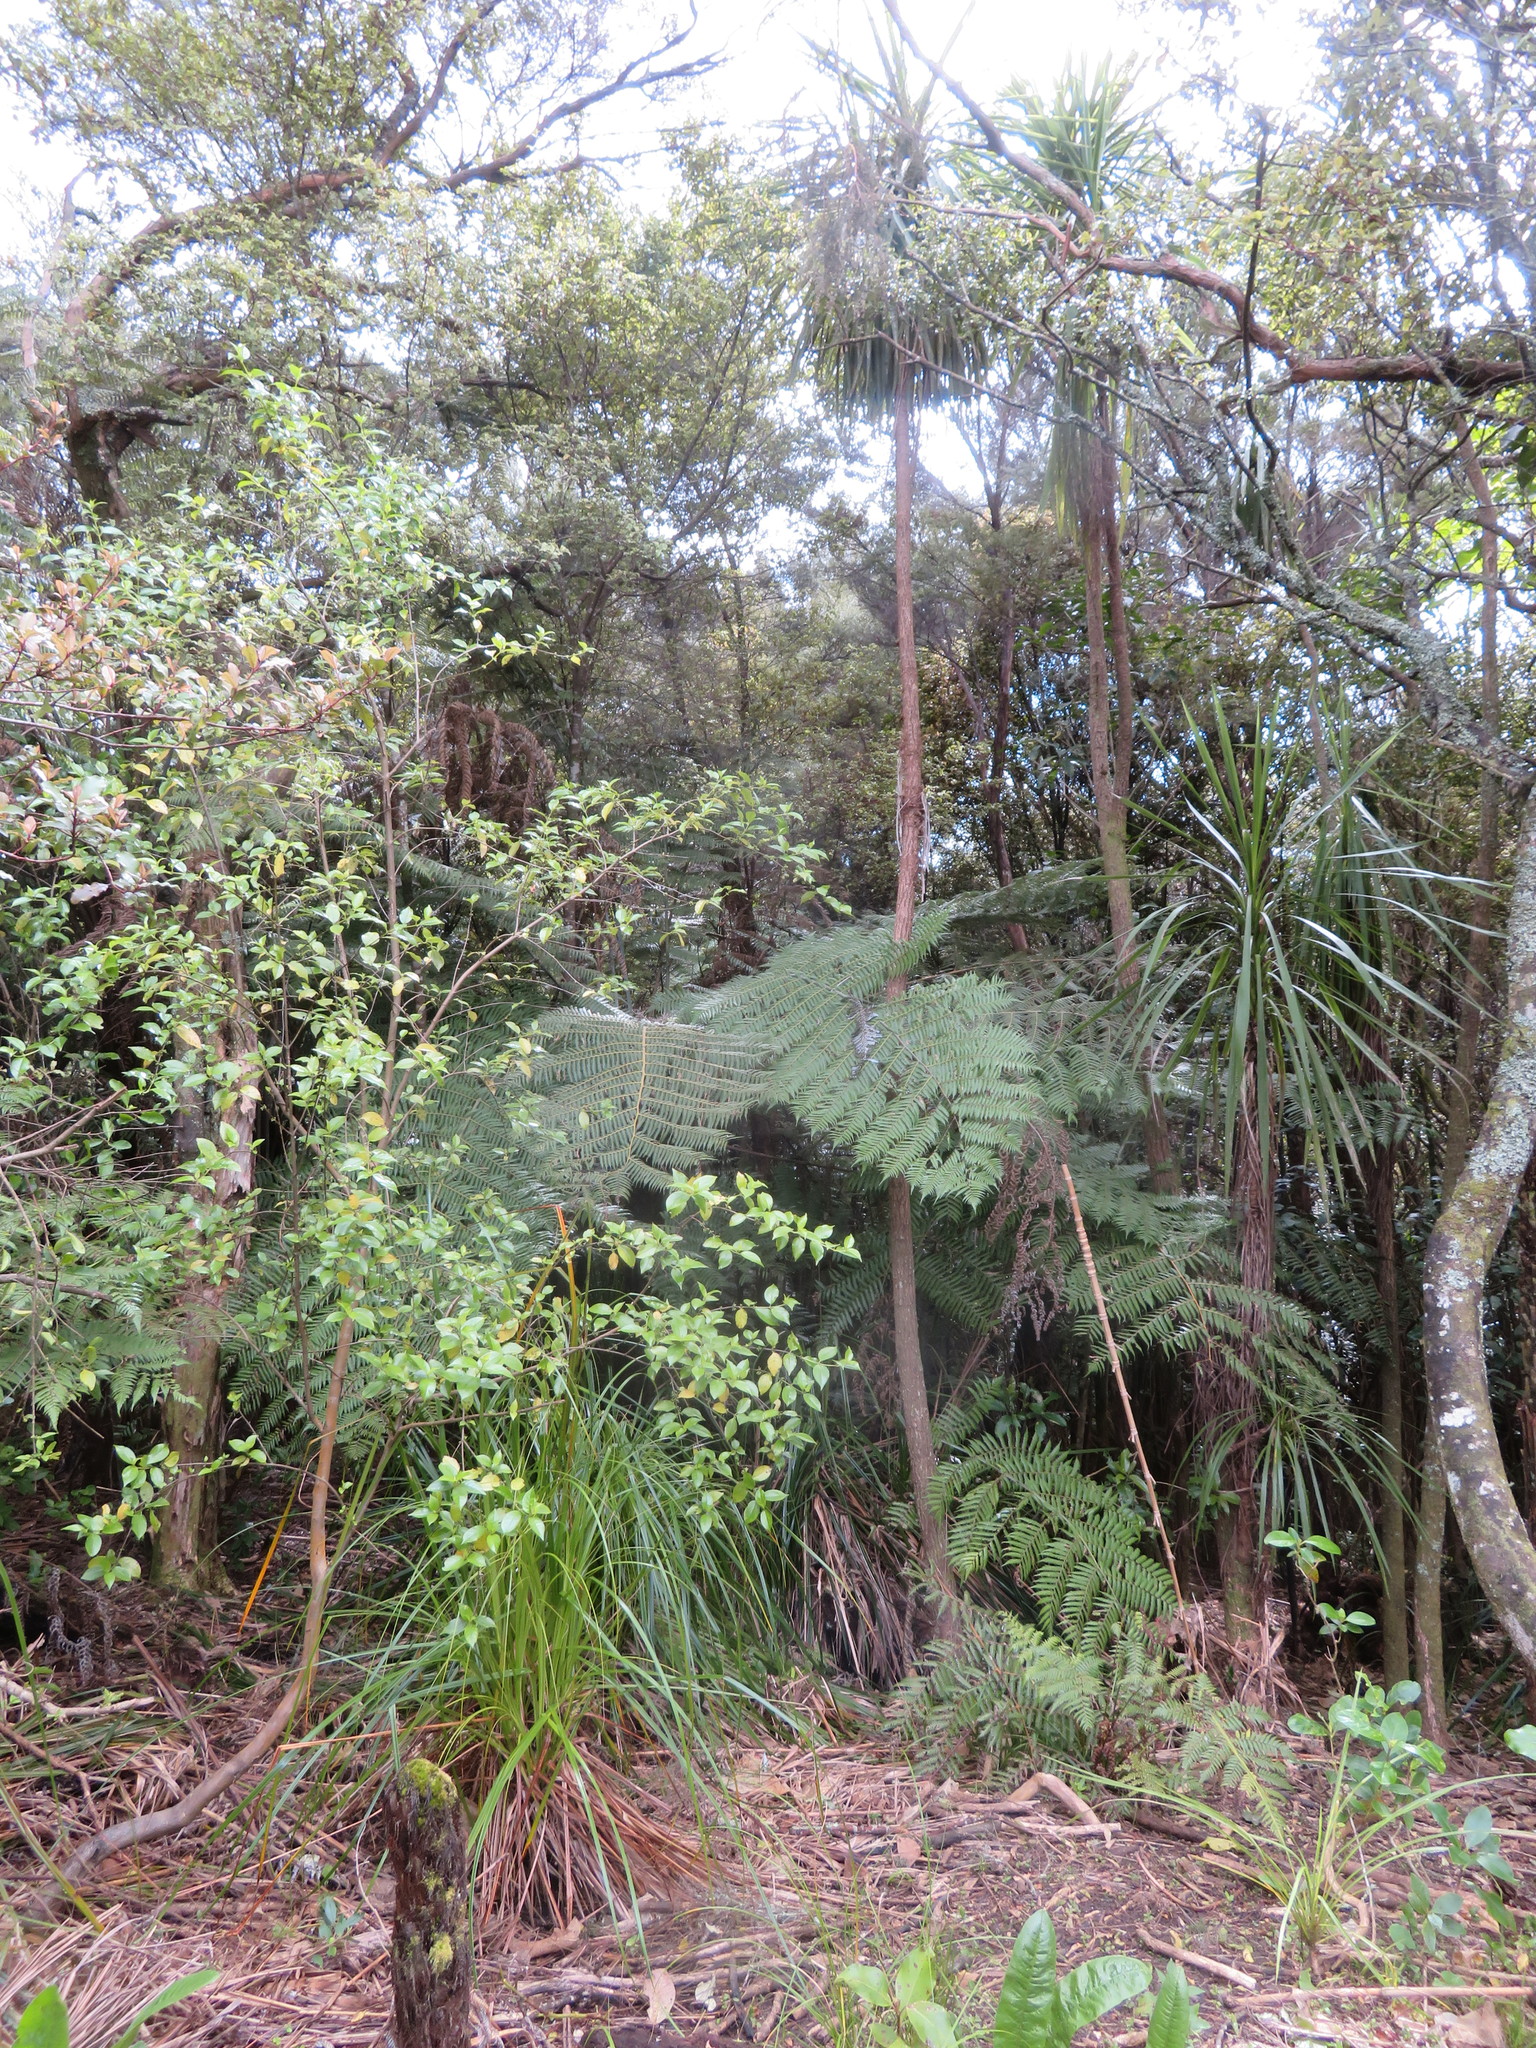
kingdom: Plantae
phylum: Tracheophyta
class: Liliopsida
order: Asparagales
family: Asparagaceae
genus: Cordyline
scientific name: Cordyline australis
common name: Cabbage-palm
